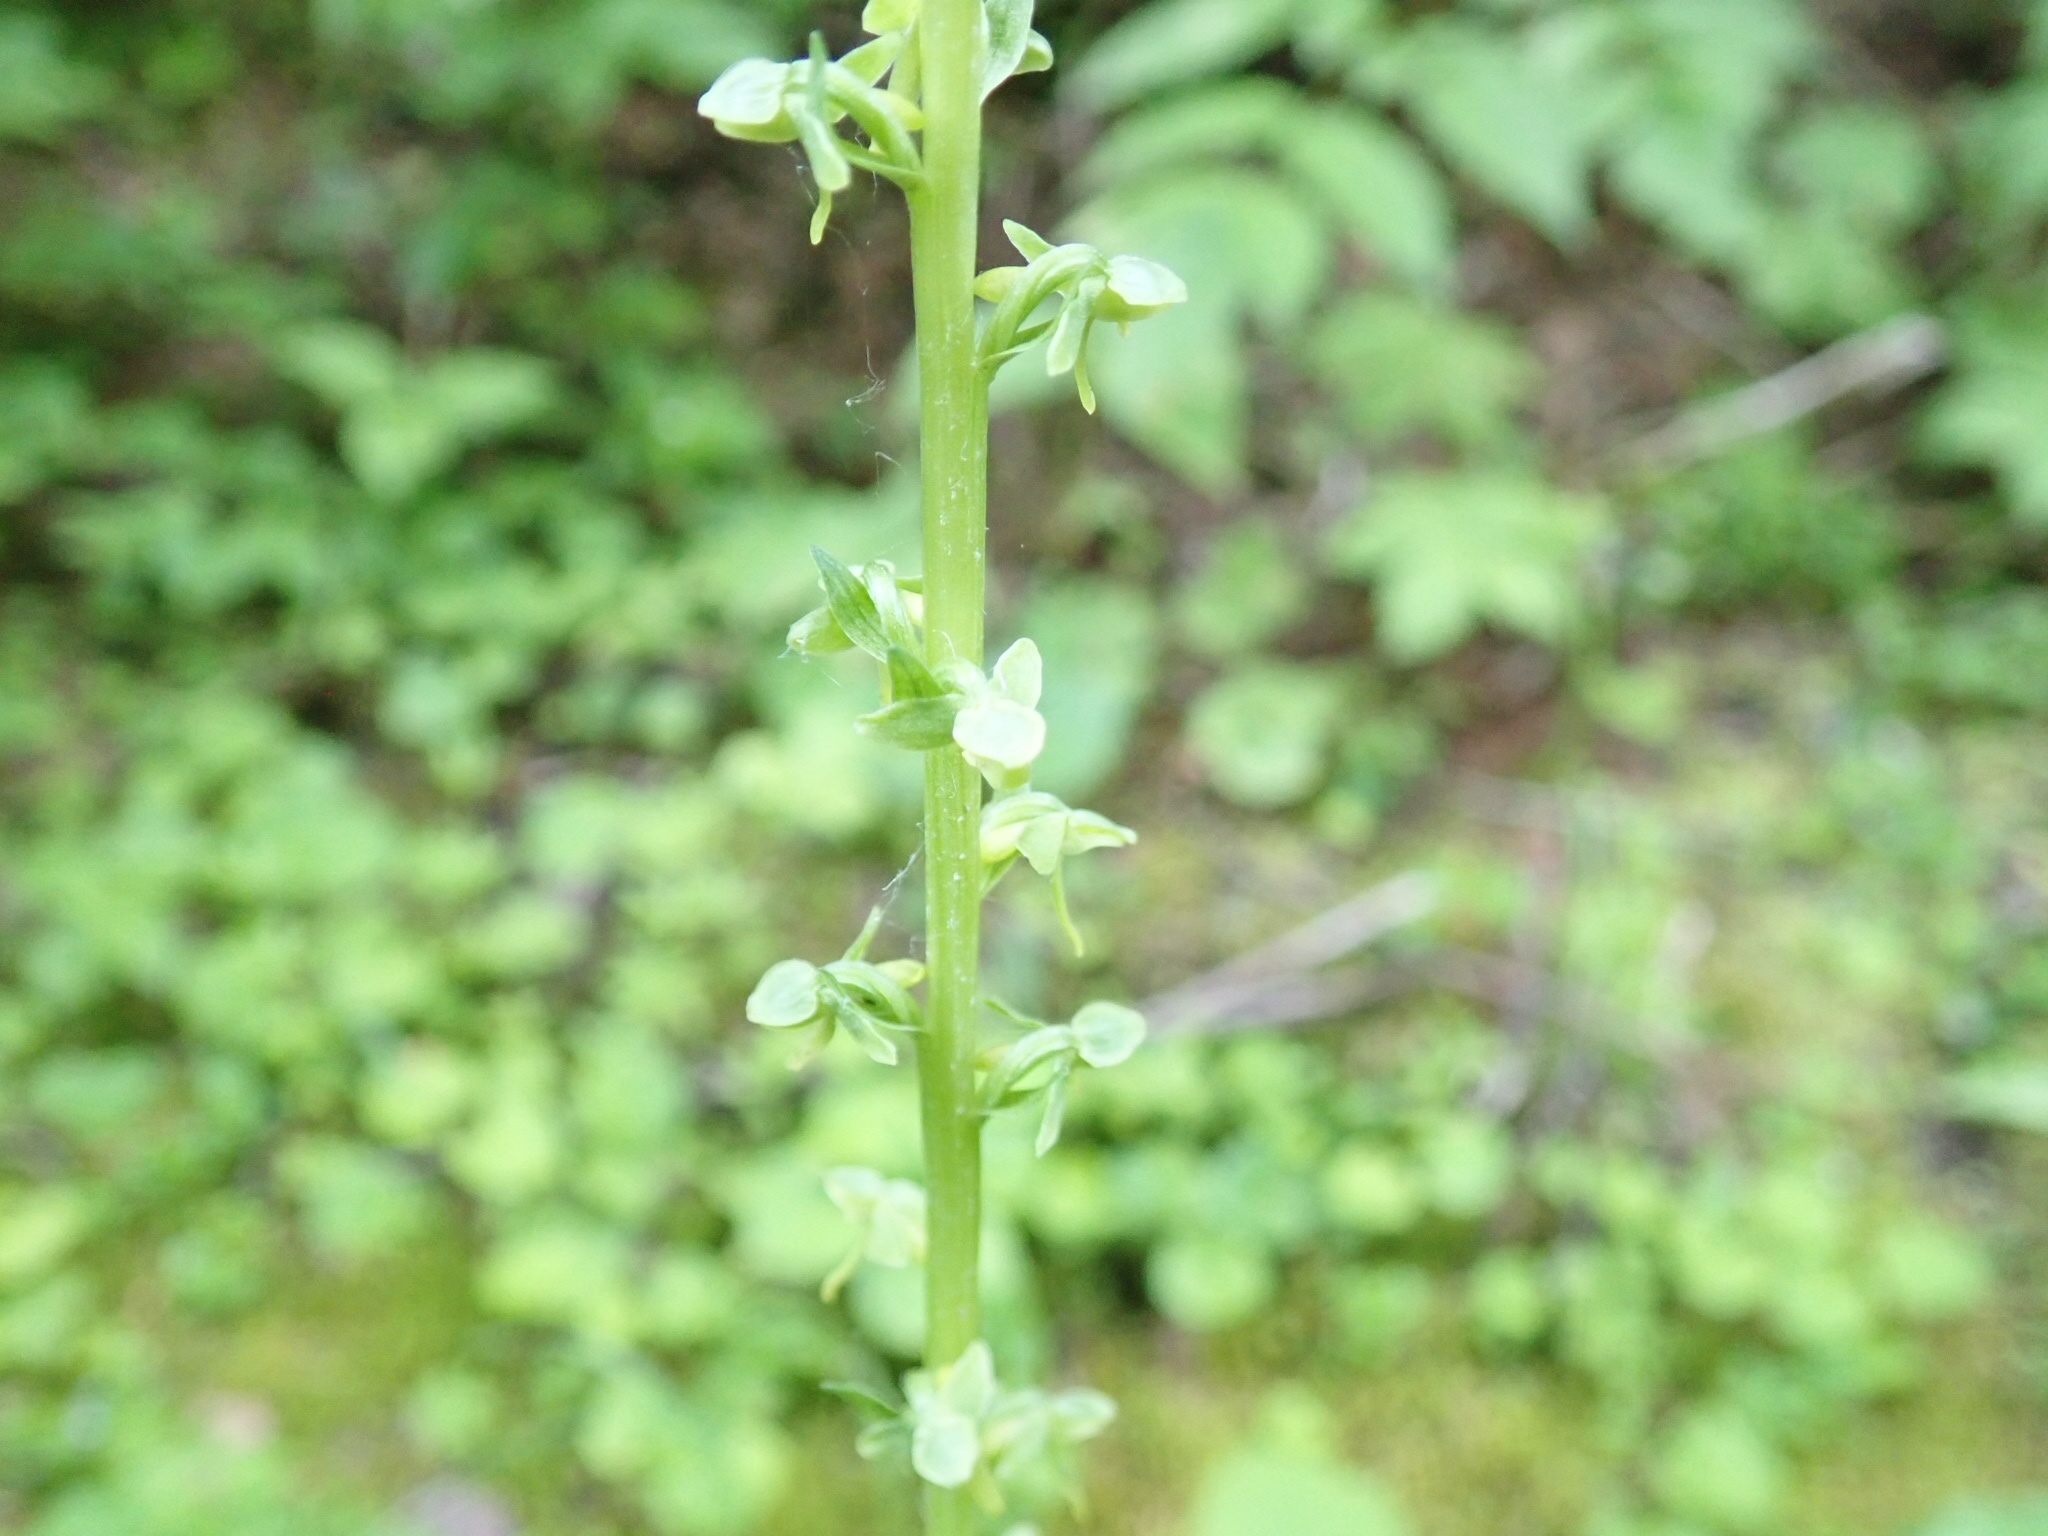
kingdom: Plantae
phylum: Tracheophyta
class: Liliopsida
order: Asparagales
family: Orchidaceae
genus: Platanthera
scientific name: Platanthera stricta
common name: Slender bog orchid
